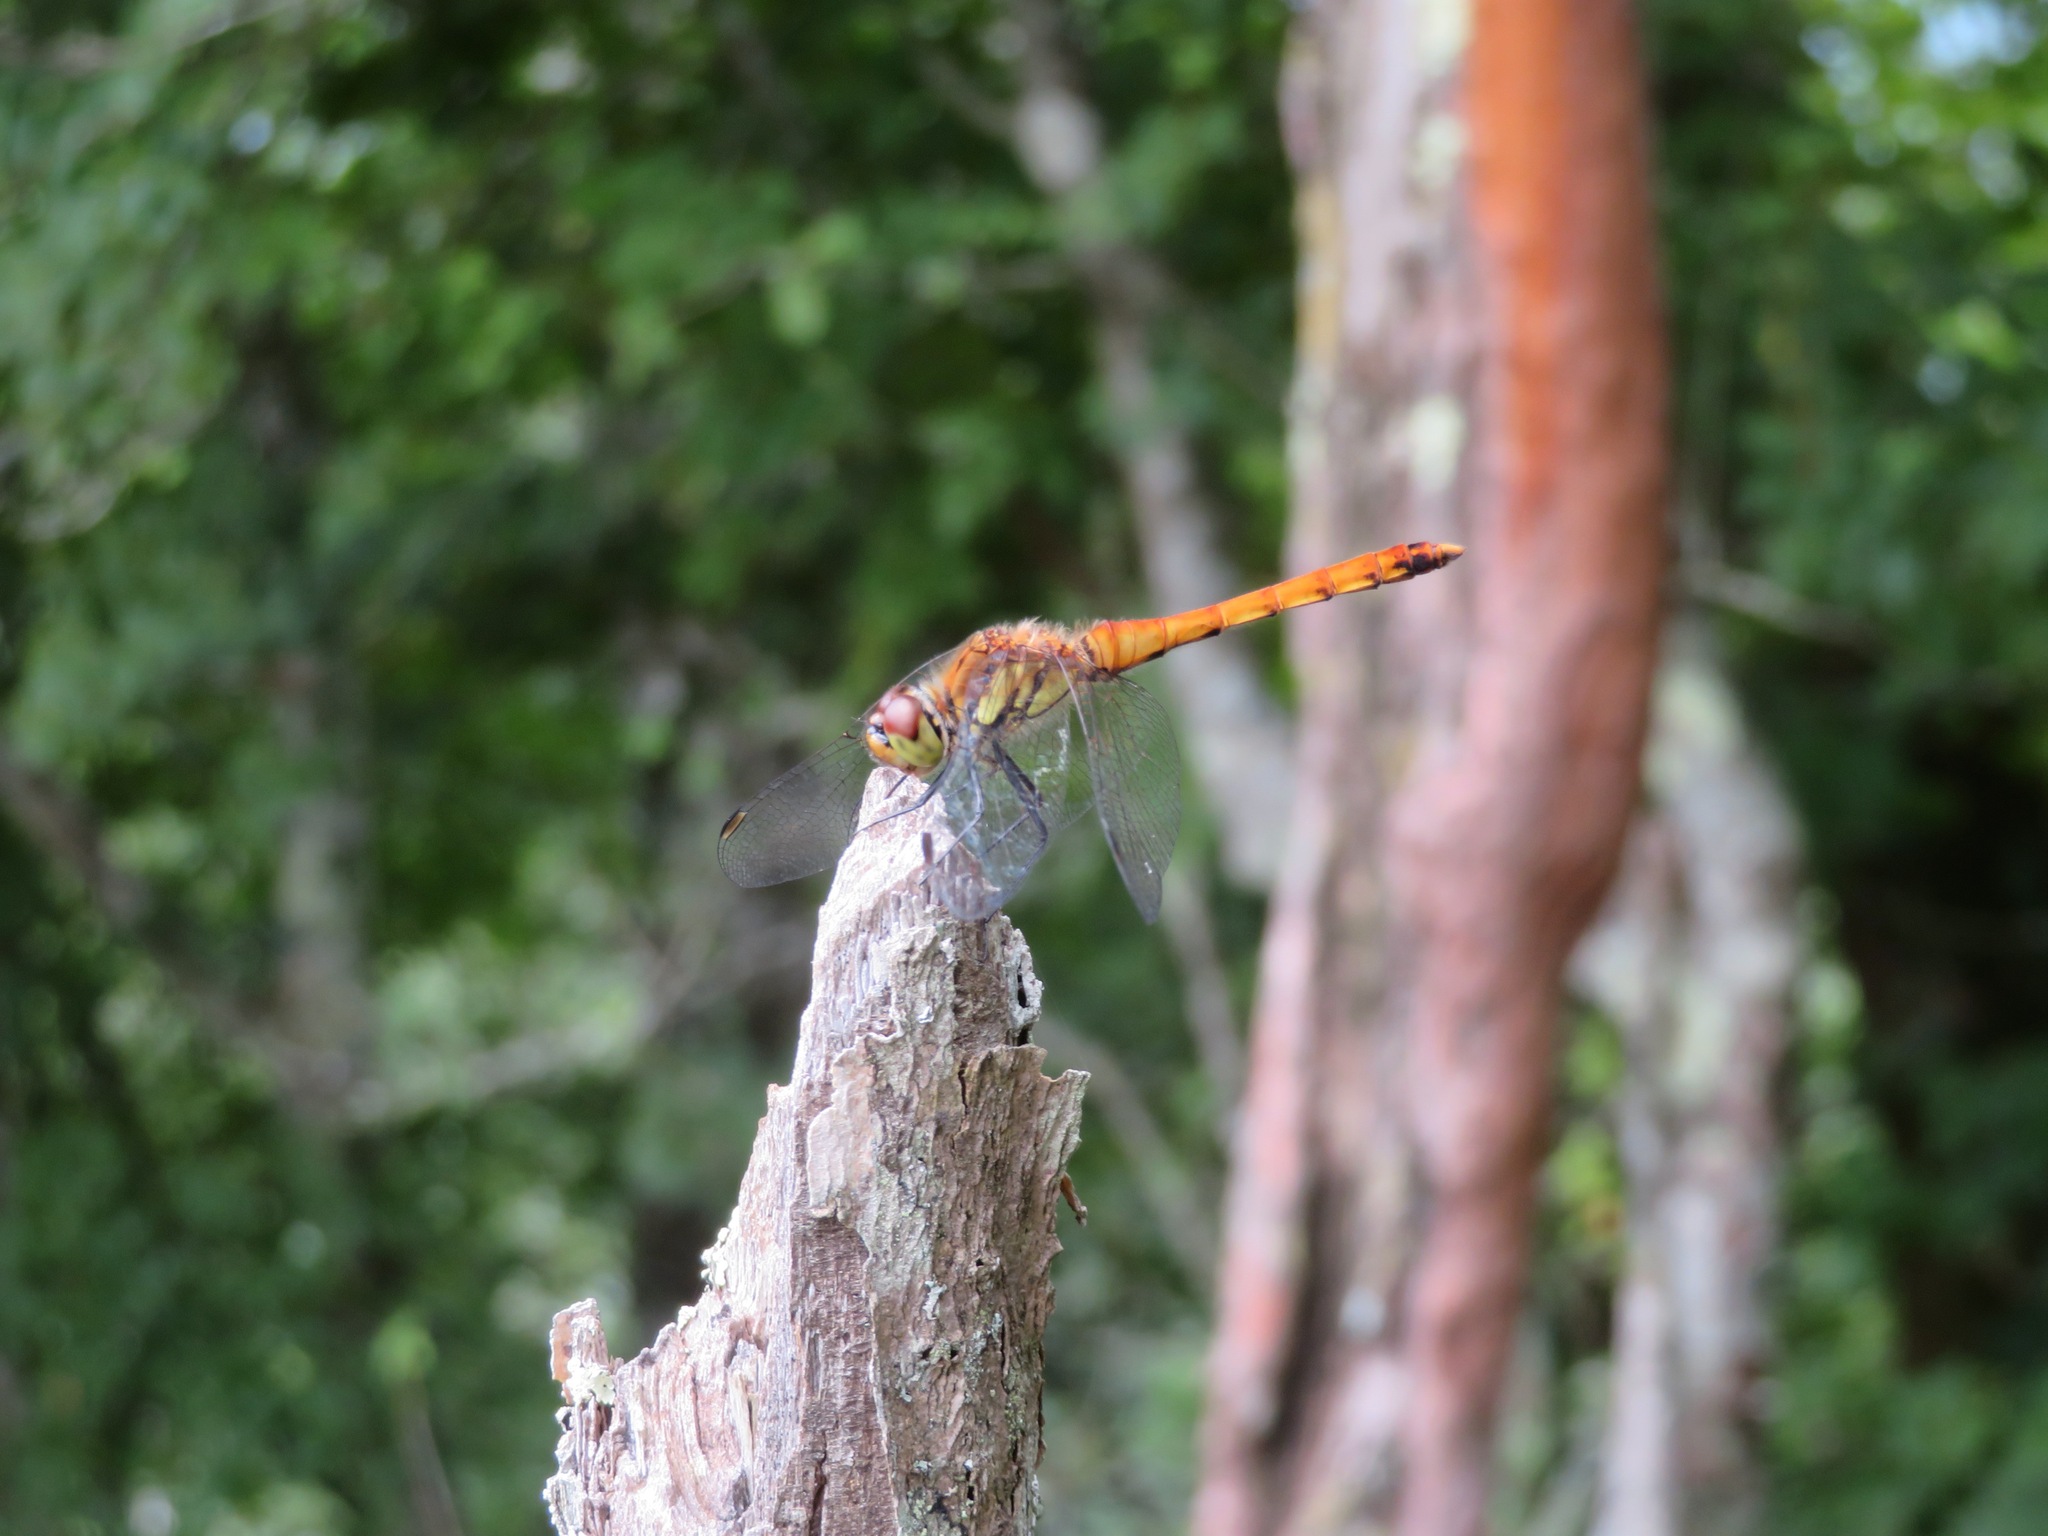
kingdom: Animalia
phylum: Arthropoda
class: Insecta
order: Odonata
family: Libellulidae
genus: Sympetrum
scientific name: Sympetrum frequens
